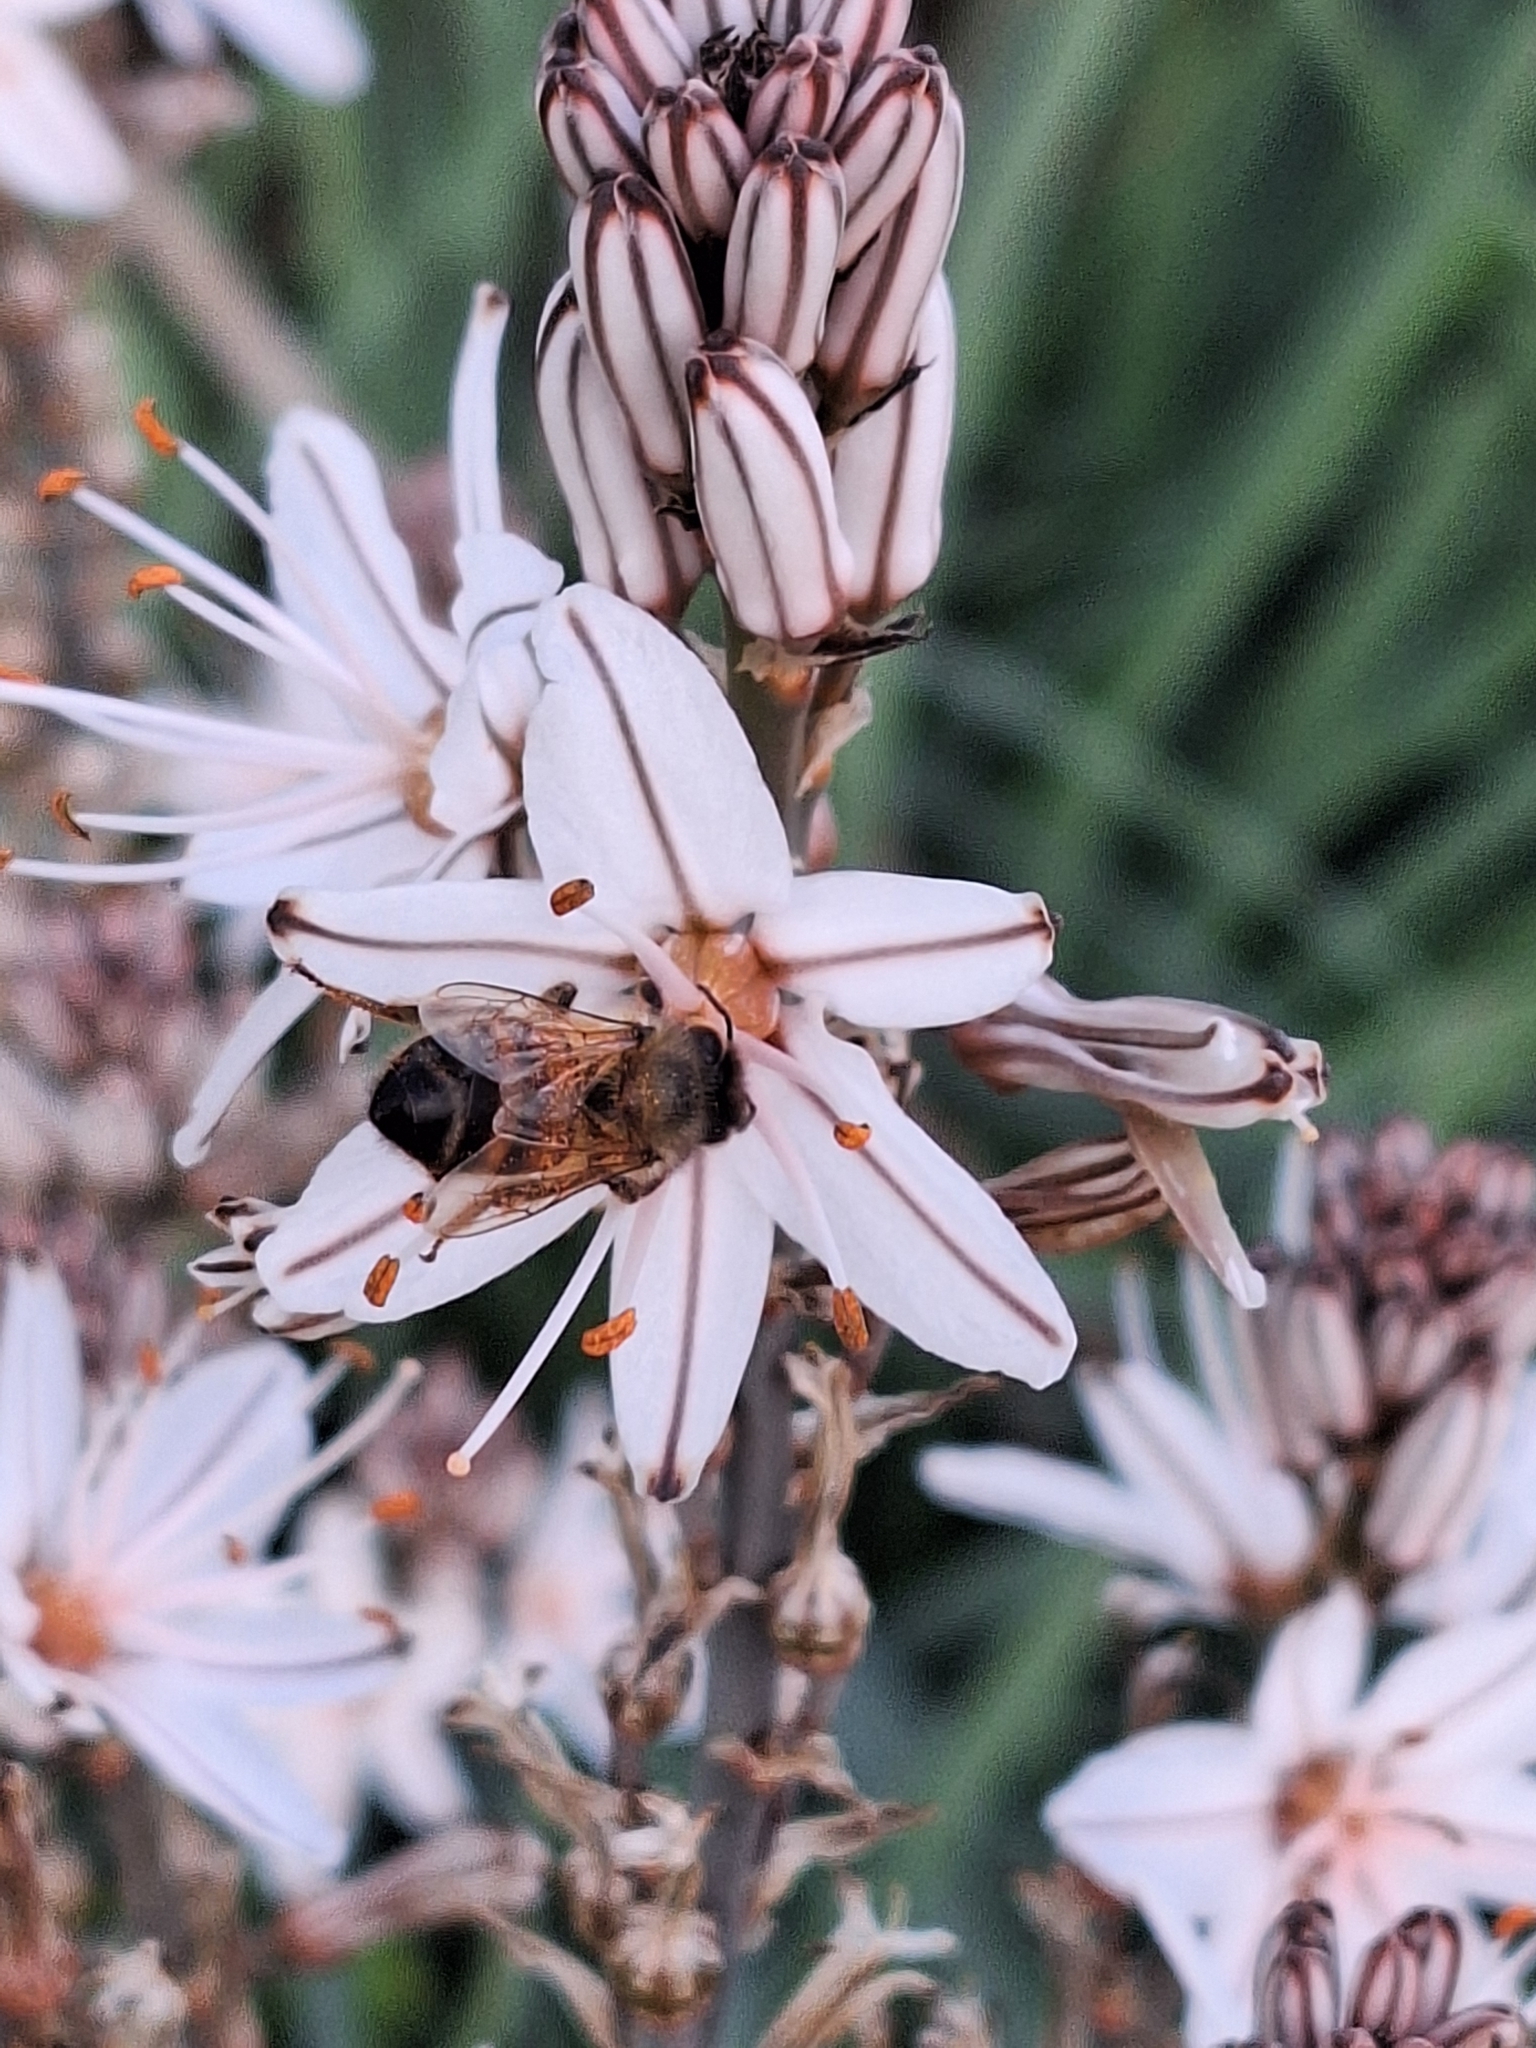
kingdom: Plantae
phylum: Tracheophyta
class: Liliopsida
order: Asparagales
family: Asphodelaceae
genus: Asphodelus
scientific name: Asphodelus ramosus
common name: Silverrod
